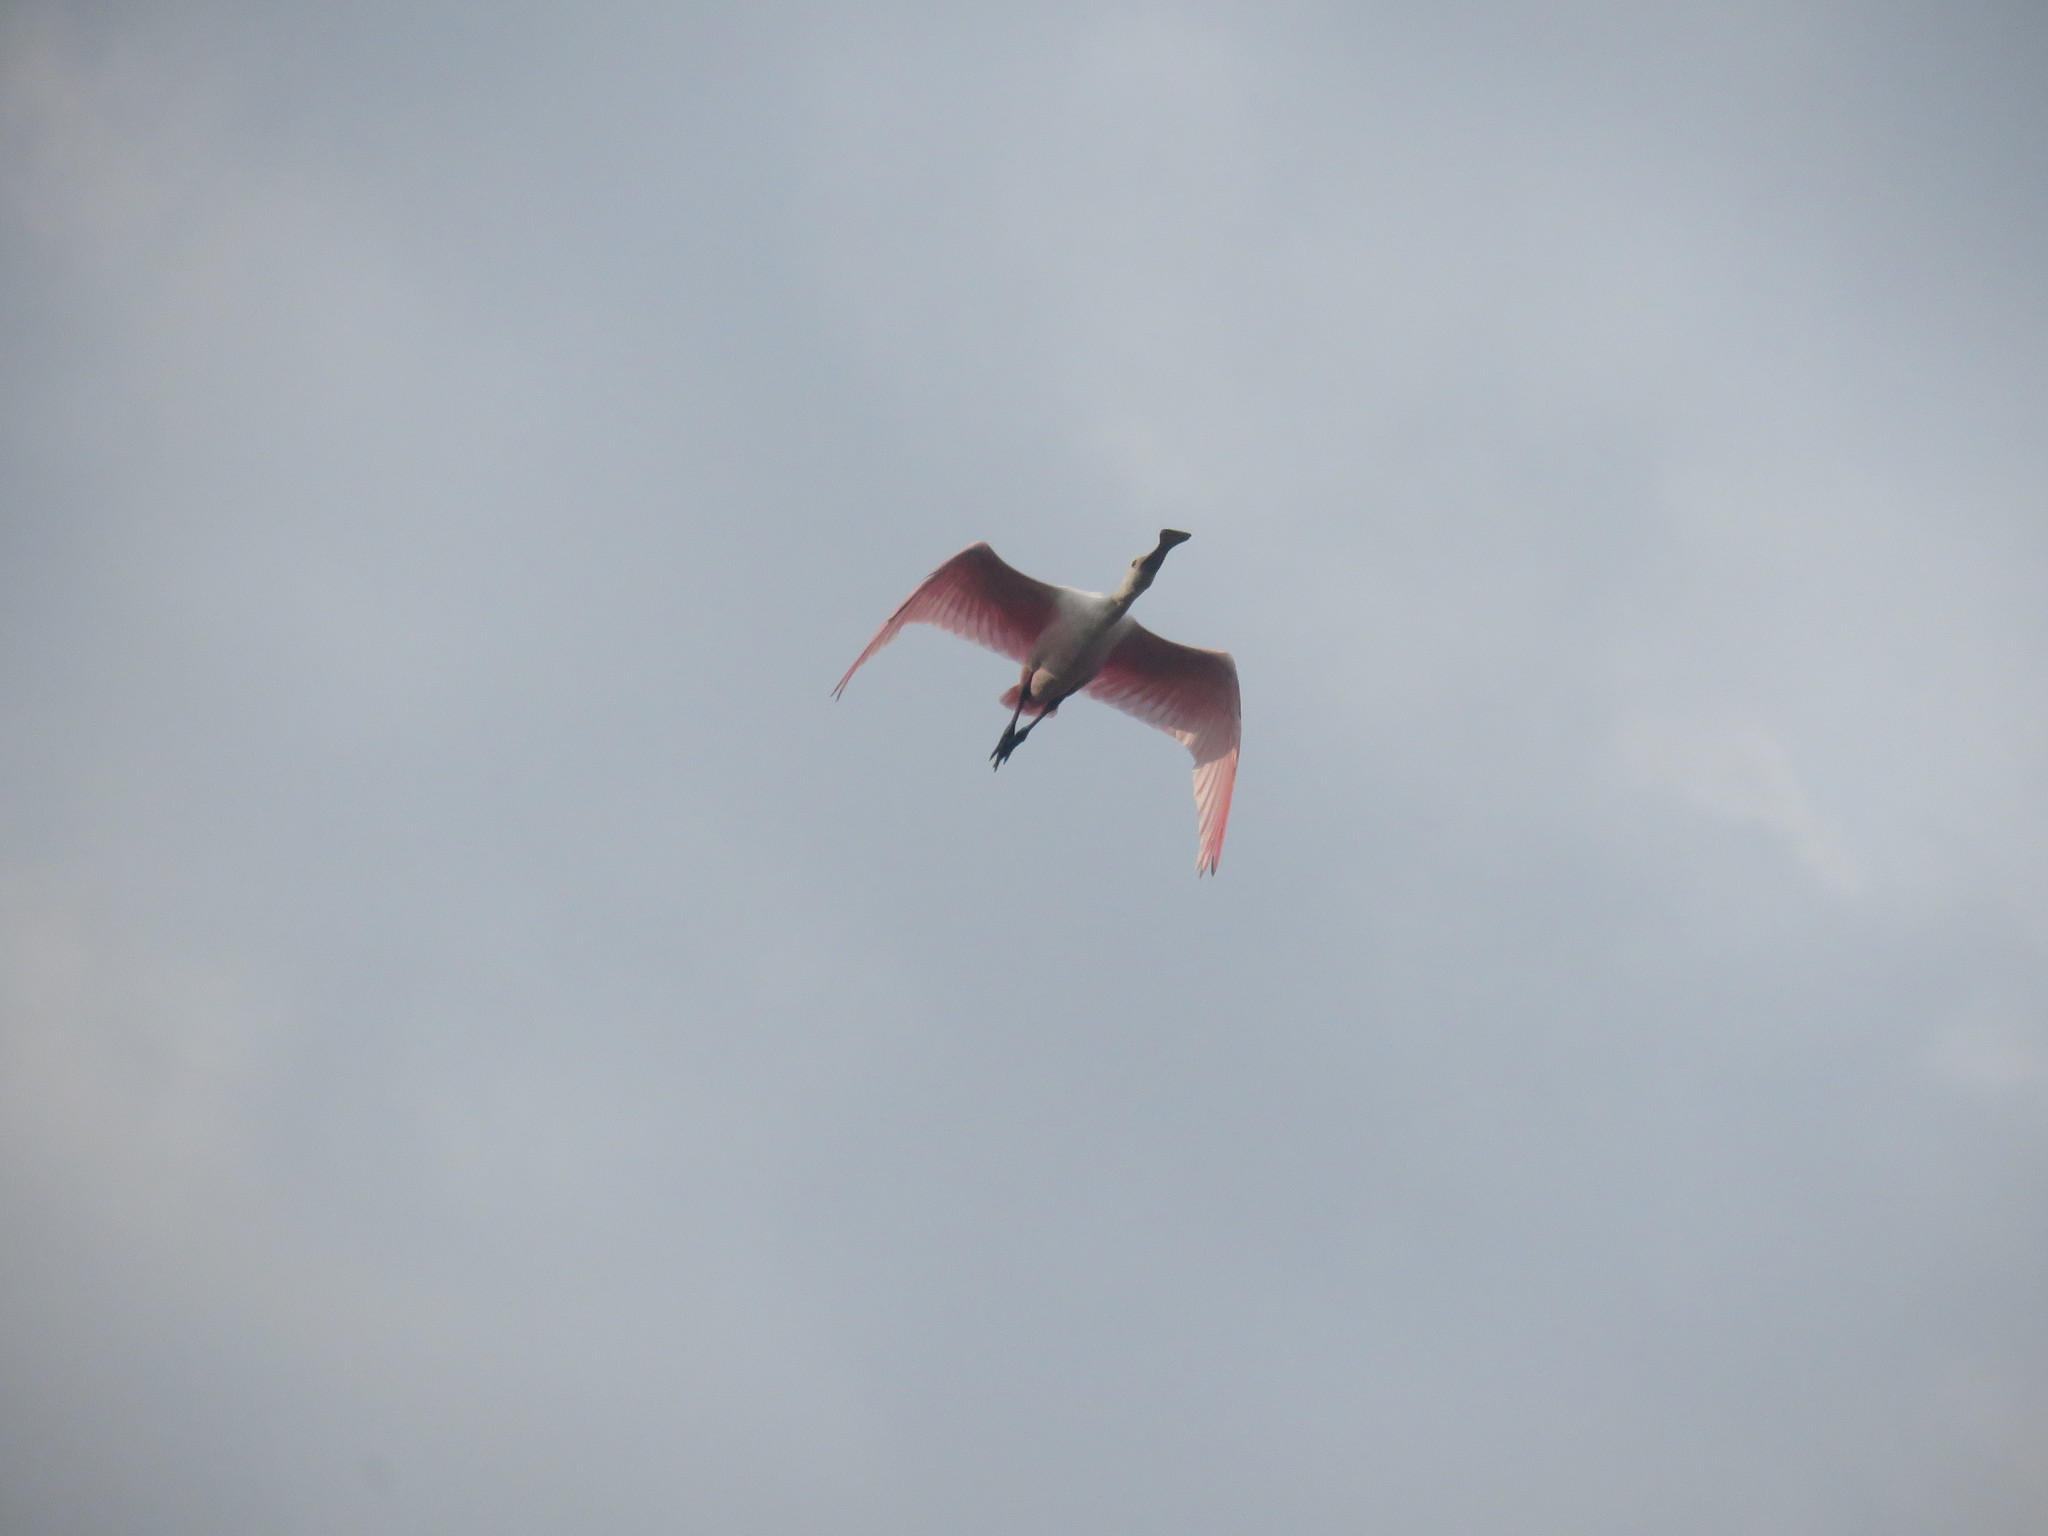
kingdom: Animalia
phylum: Chordata
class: Aves
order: Pelecaniformes
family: Threskiornithidae
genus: Platalea
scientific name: Platalea ajaja
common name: Roseate spoonbill
